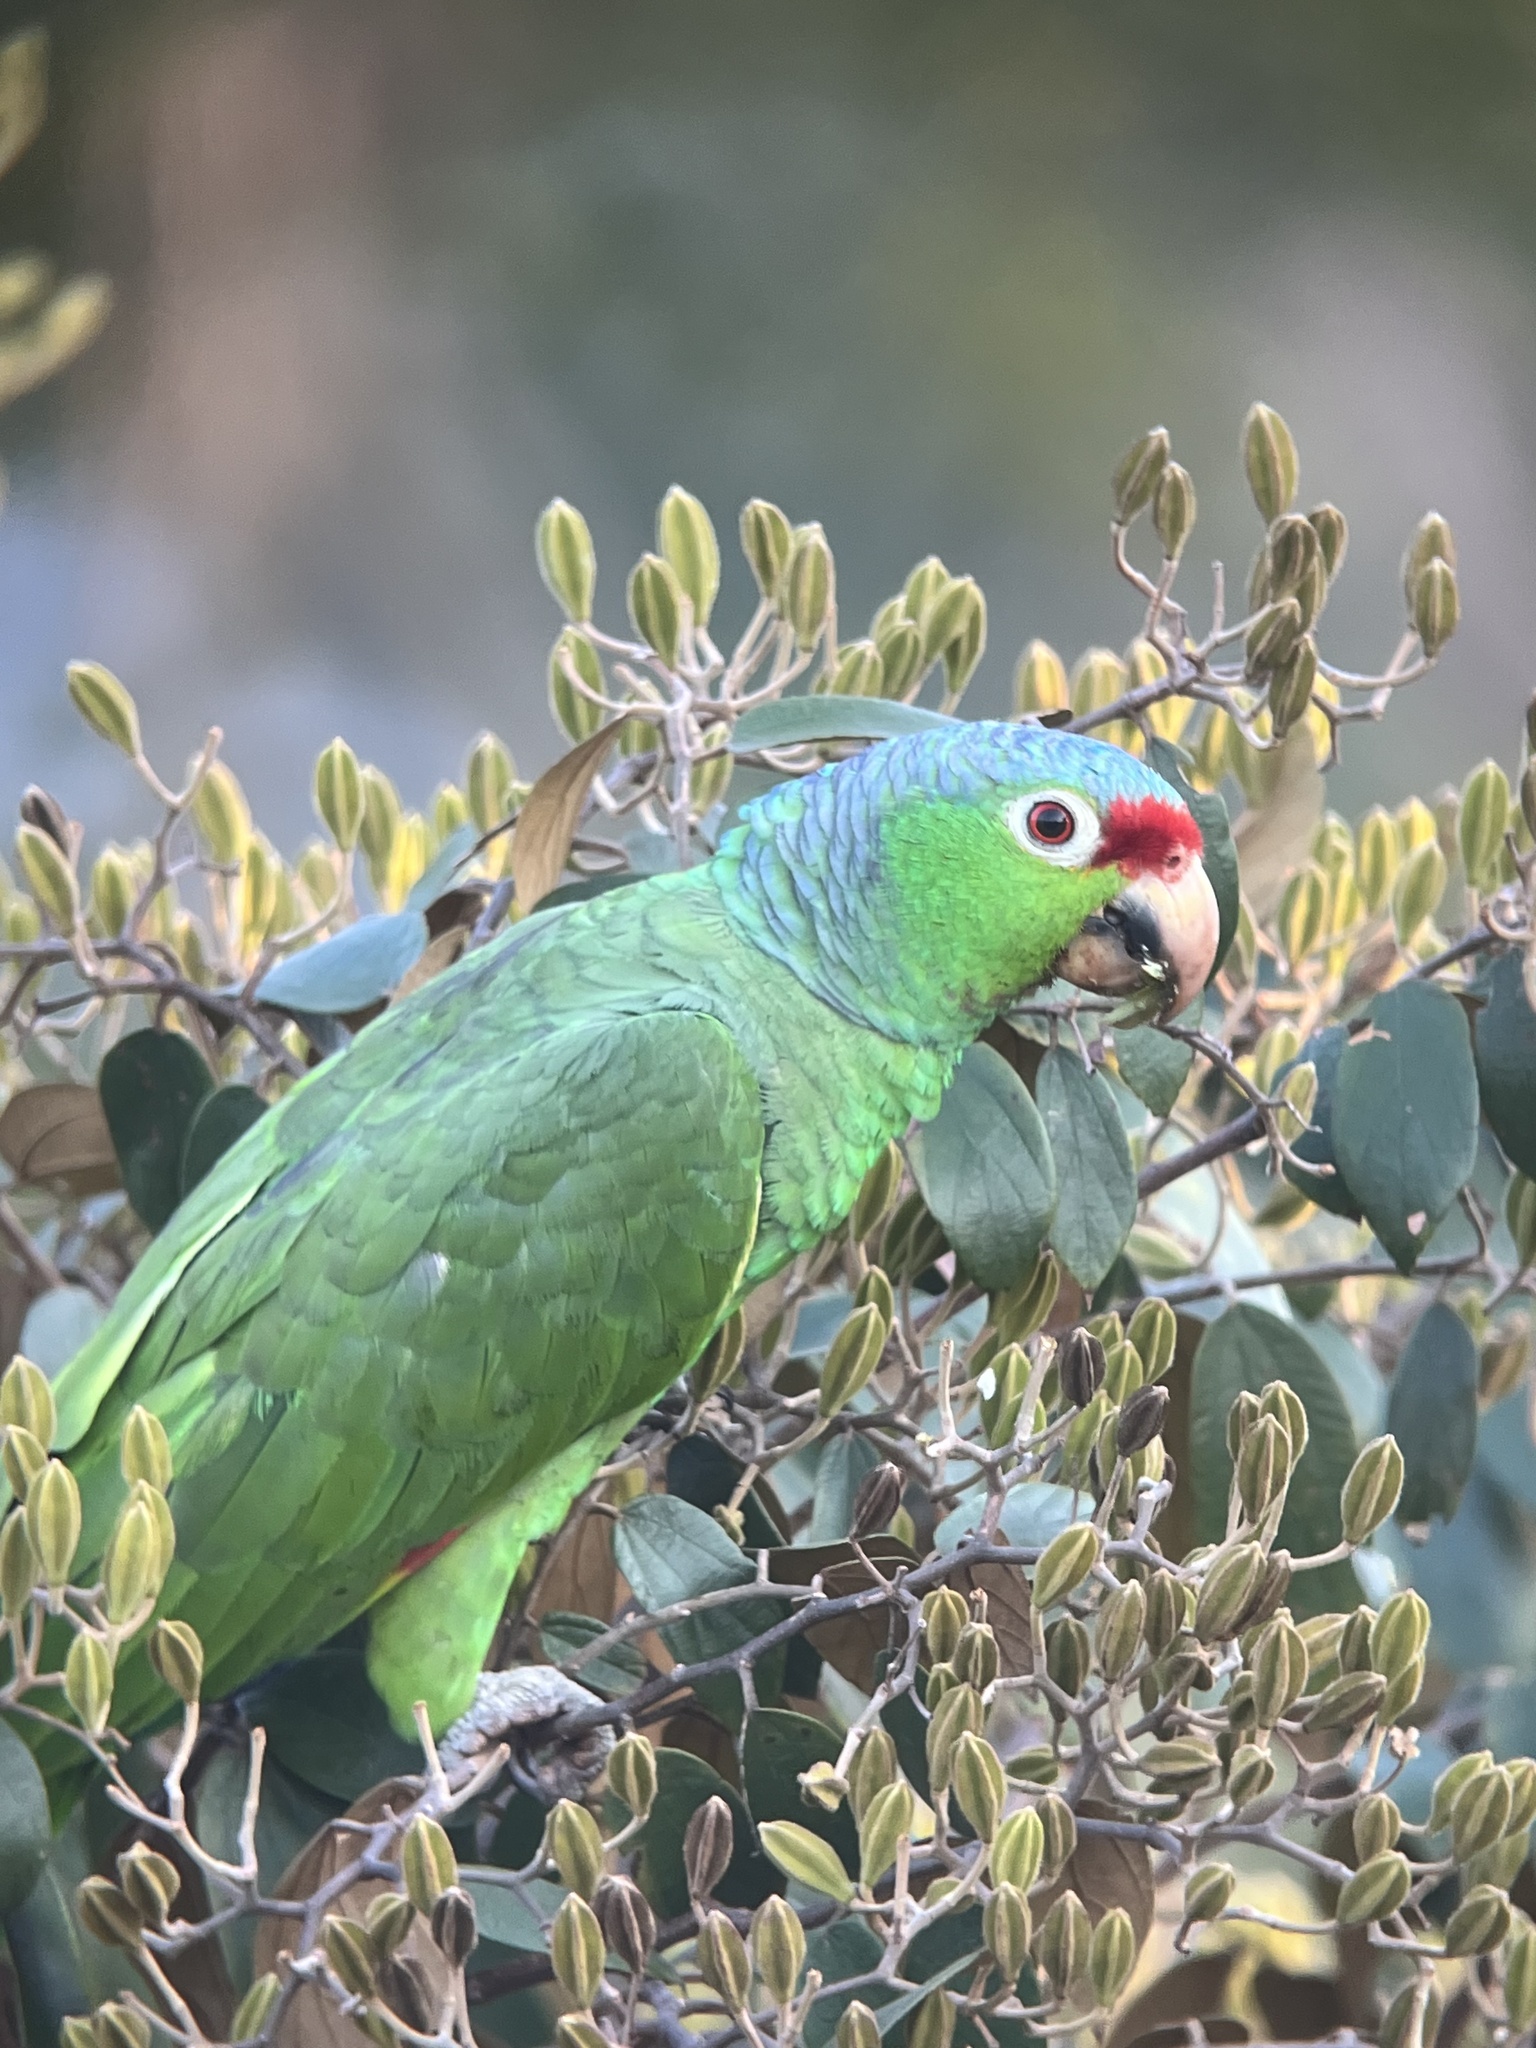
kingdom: Animalia
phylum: Chordata
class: Aves
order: Psittaciformes
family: Psittacidae
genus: Amazona
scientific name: Amazona autumnalis
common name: Red-lored amazon
